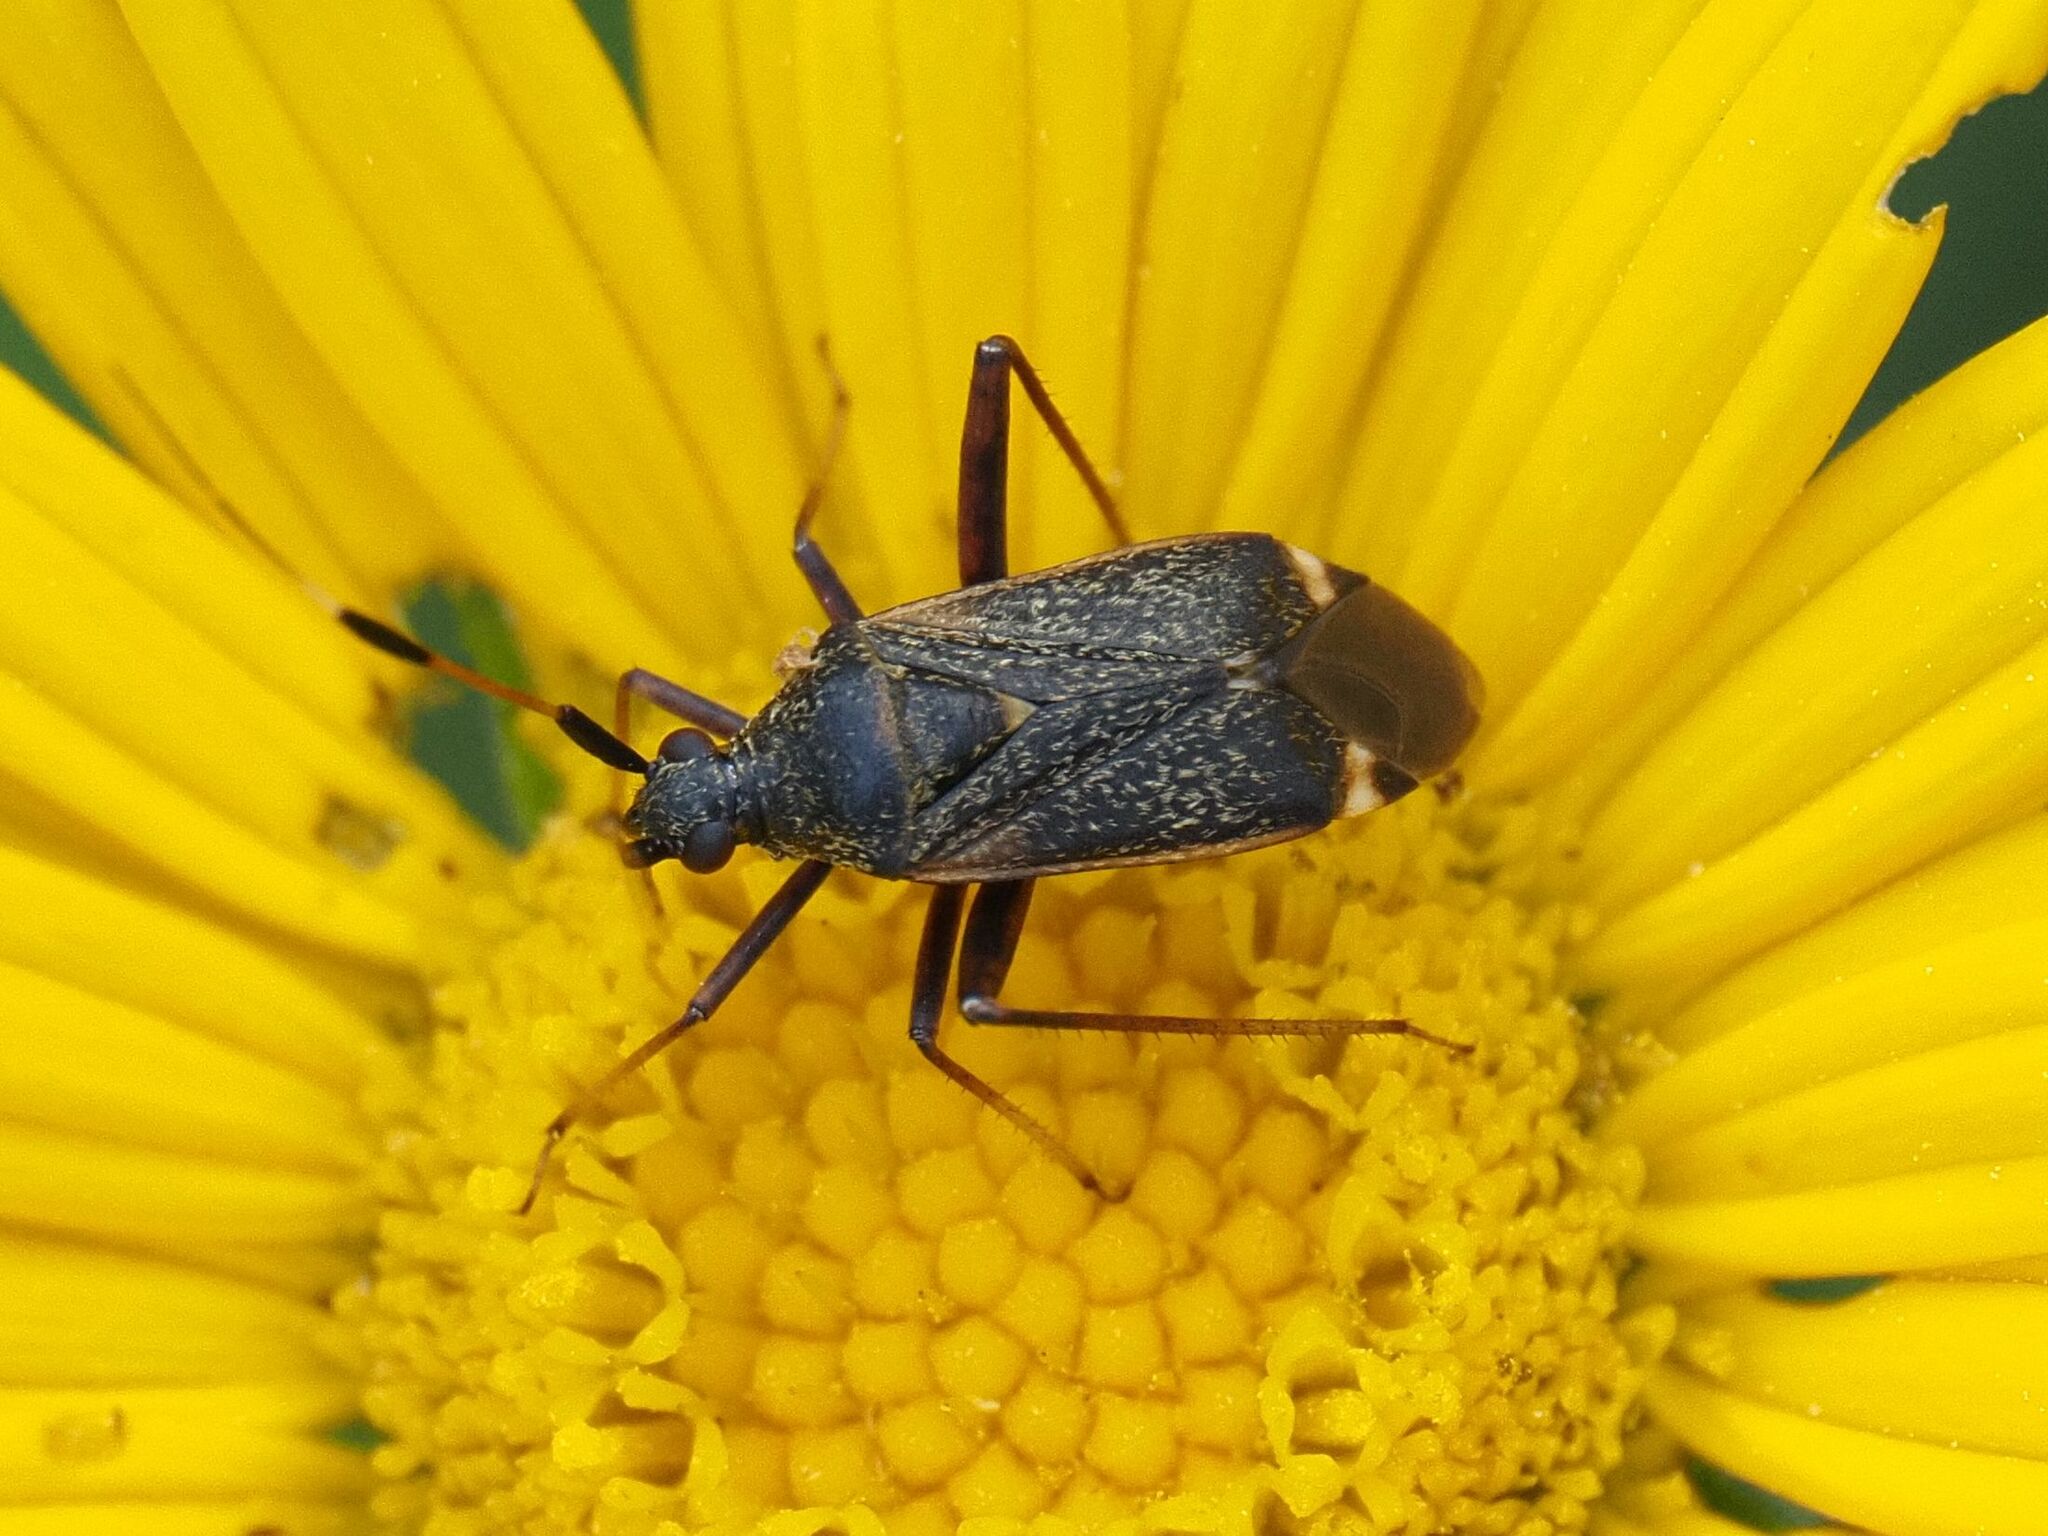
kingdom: Animalia
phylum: Arthropoda
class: Insecta
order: Hemiptera
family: Miridae
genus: Closterotomus
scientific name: Closterotomus biclavatus
